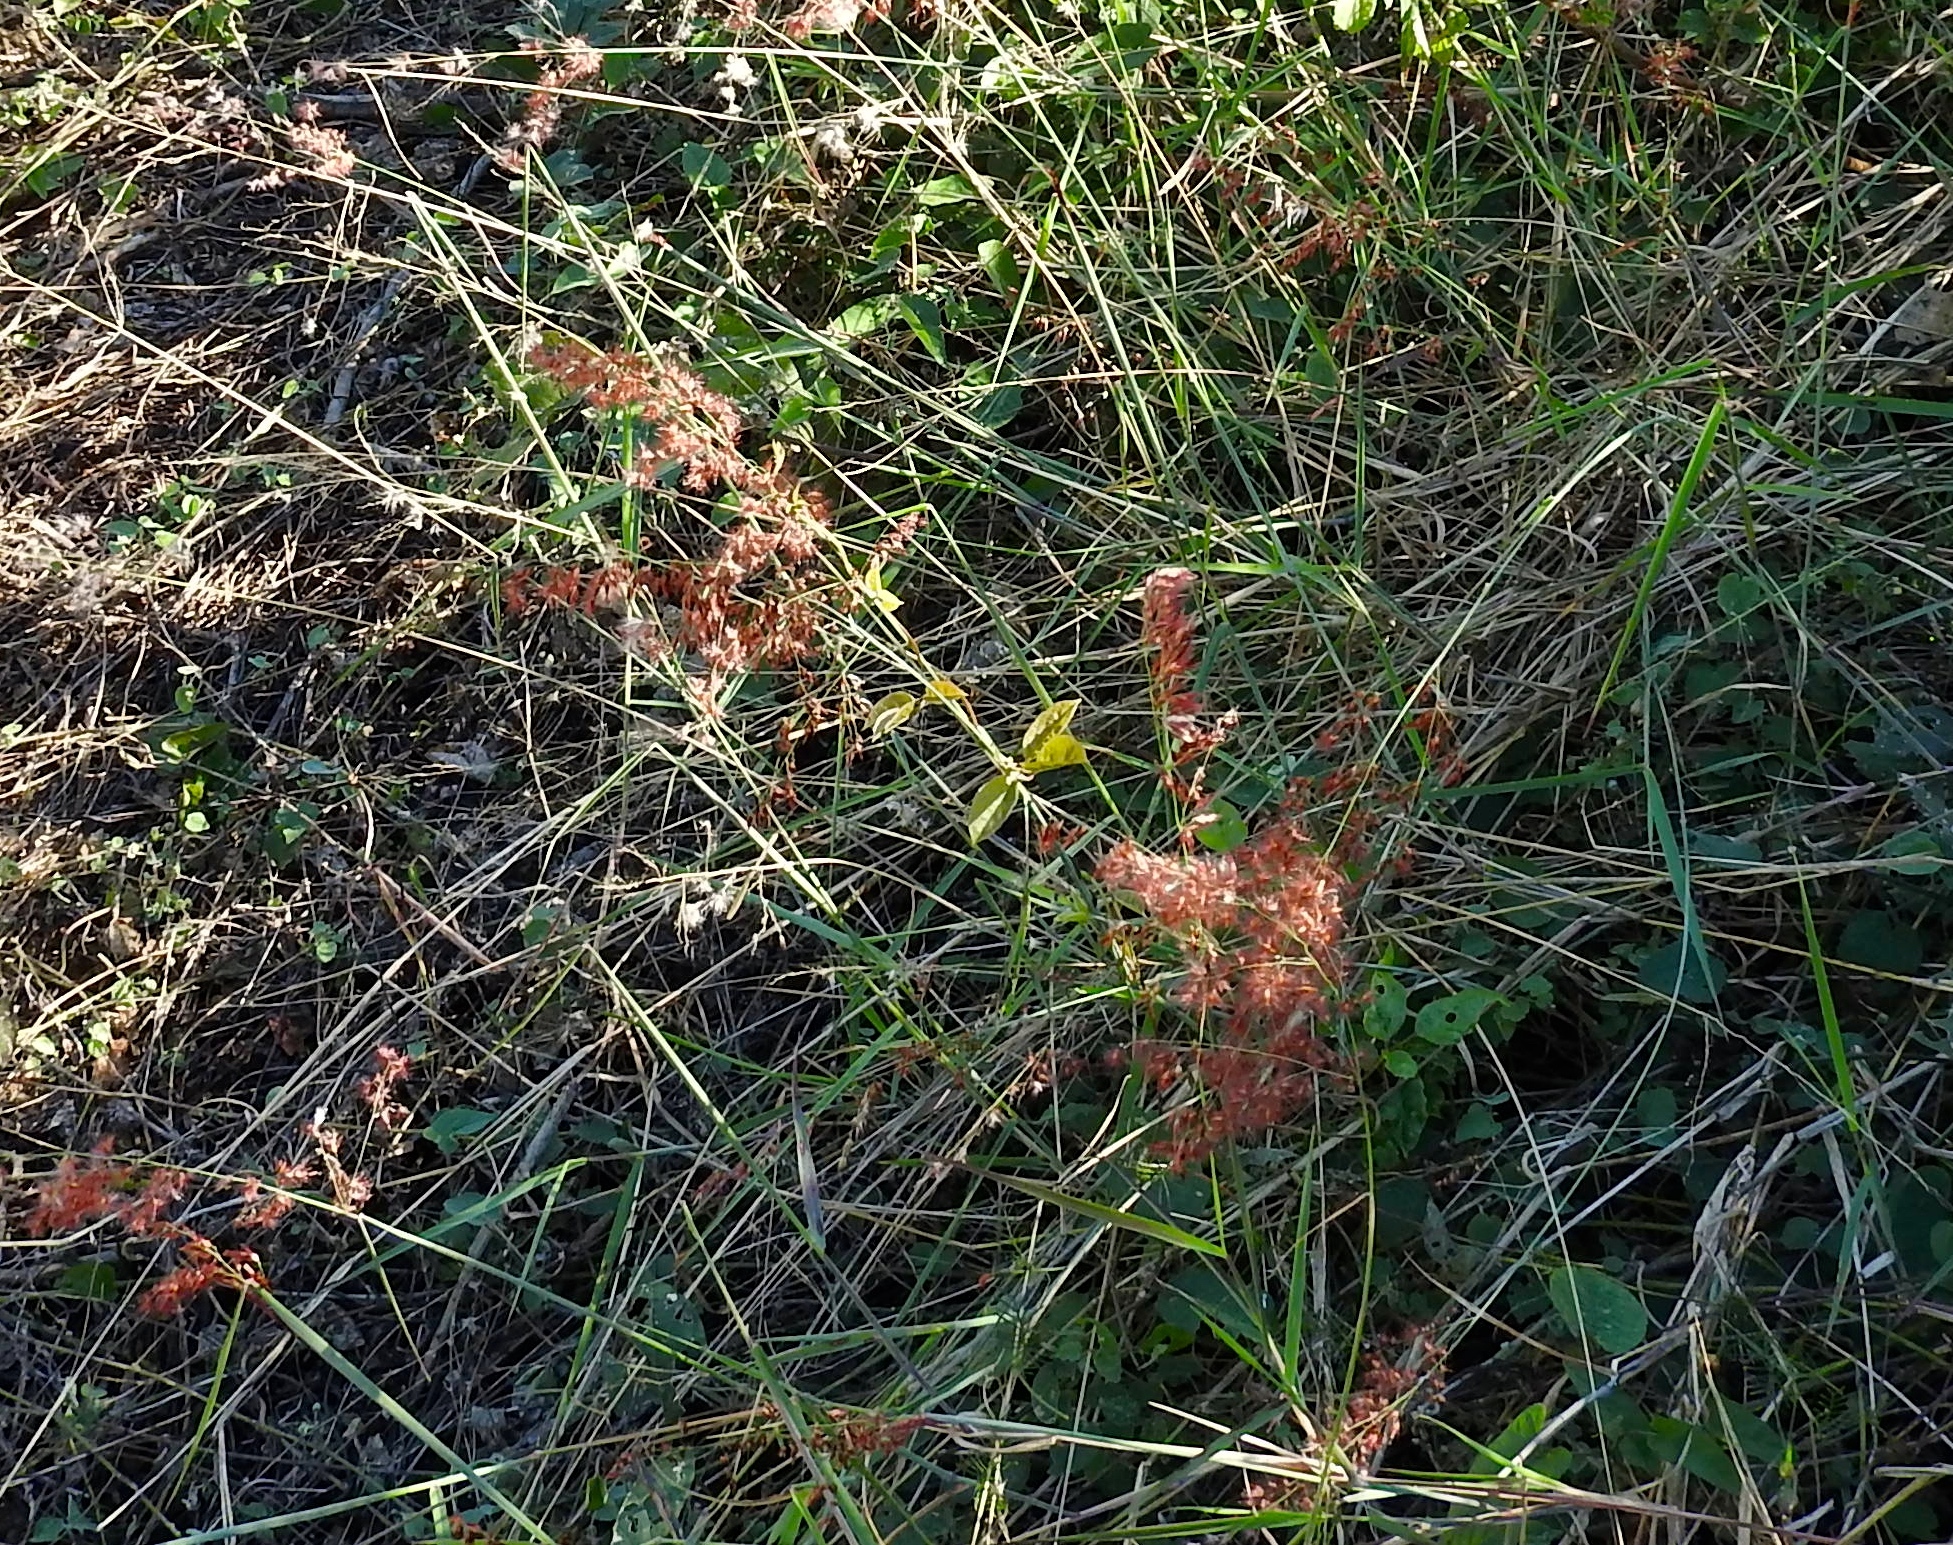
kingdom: Plantae
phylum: Tracheophyta
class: Liliopsida
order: Poales
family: Poaceae
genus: Melinis
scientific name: Melinis repens
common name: Rose natal grass
